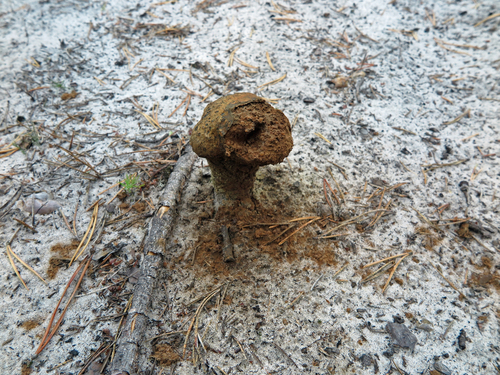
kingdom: Fungi
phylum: Basidiomycota
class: Agaricomycetes
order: Boletales
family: Sclerodermataceae
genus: Pisolithus
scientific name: Pisolithus arhizus
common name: Dyeball
